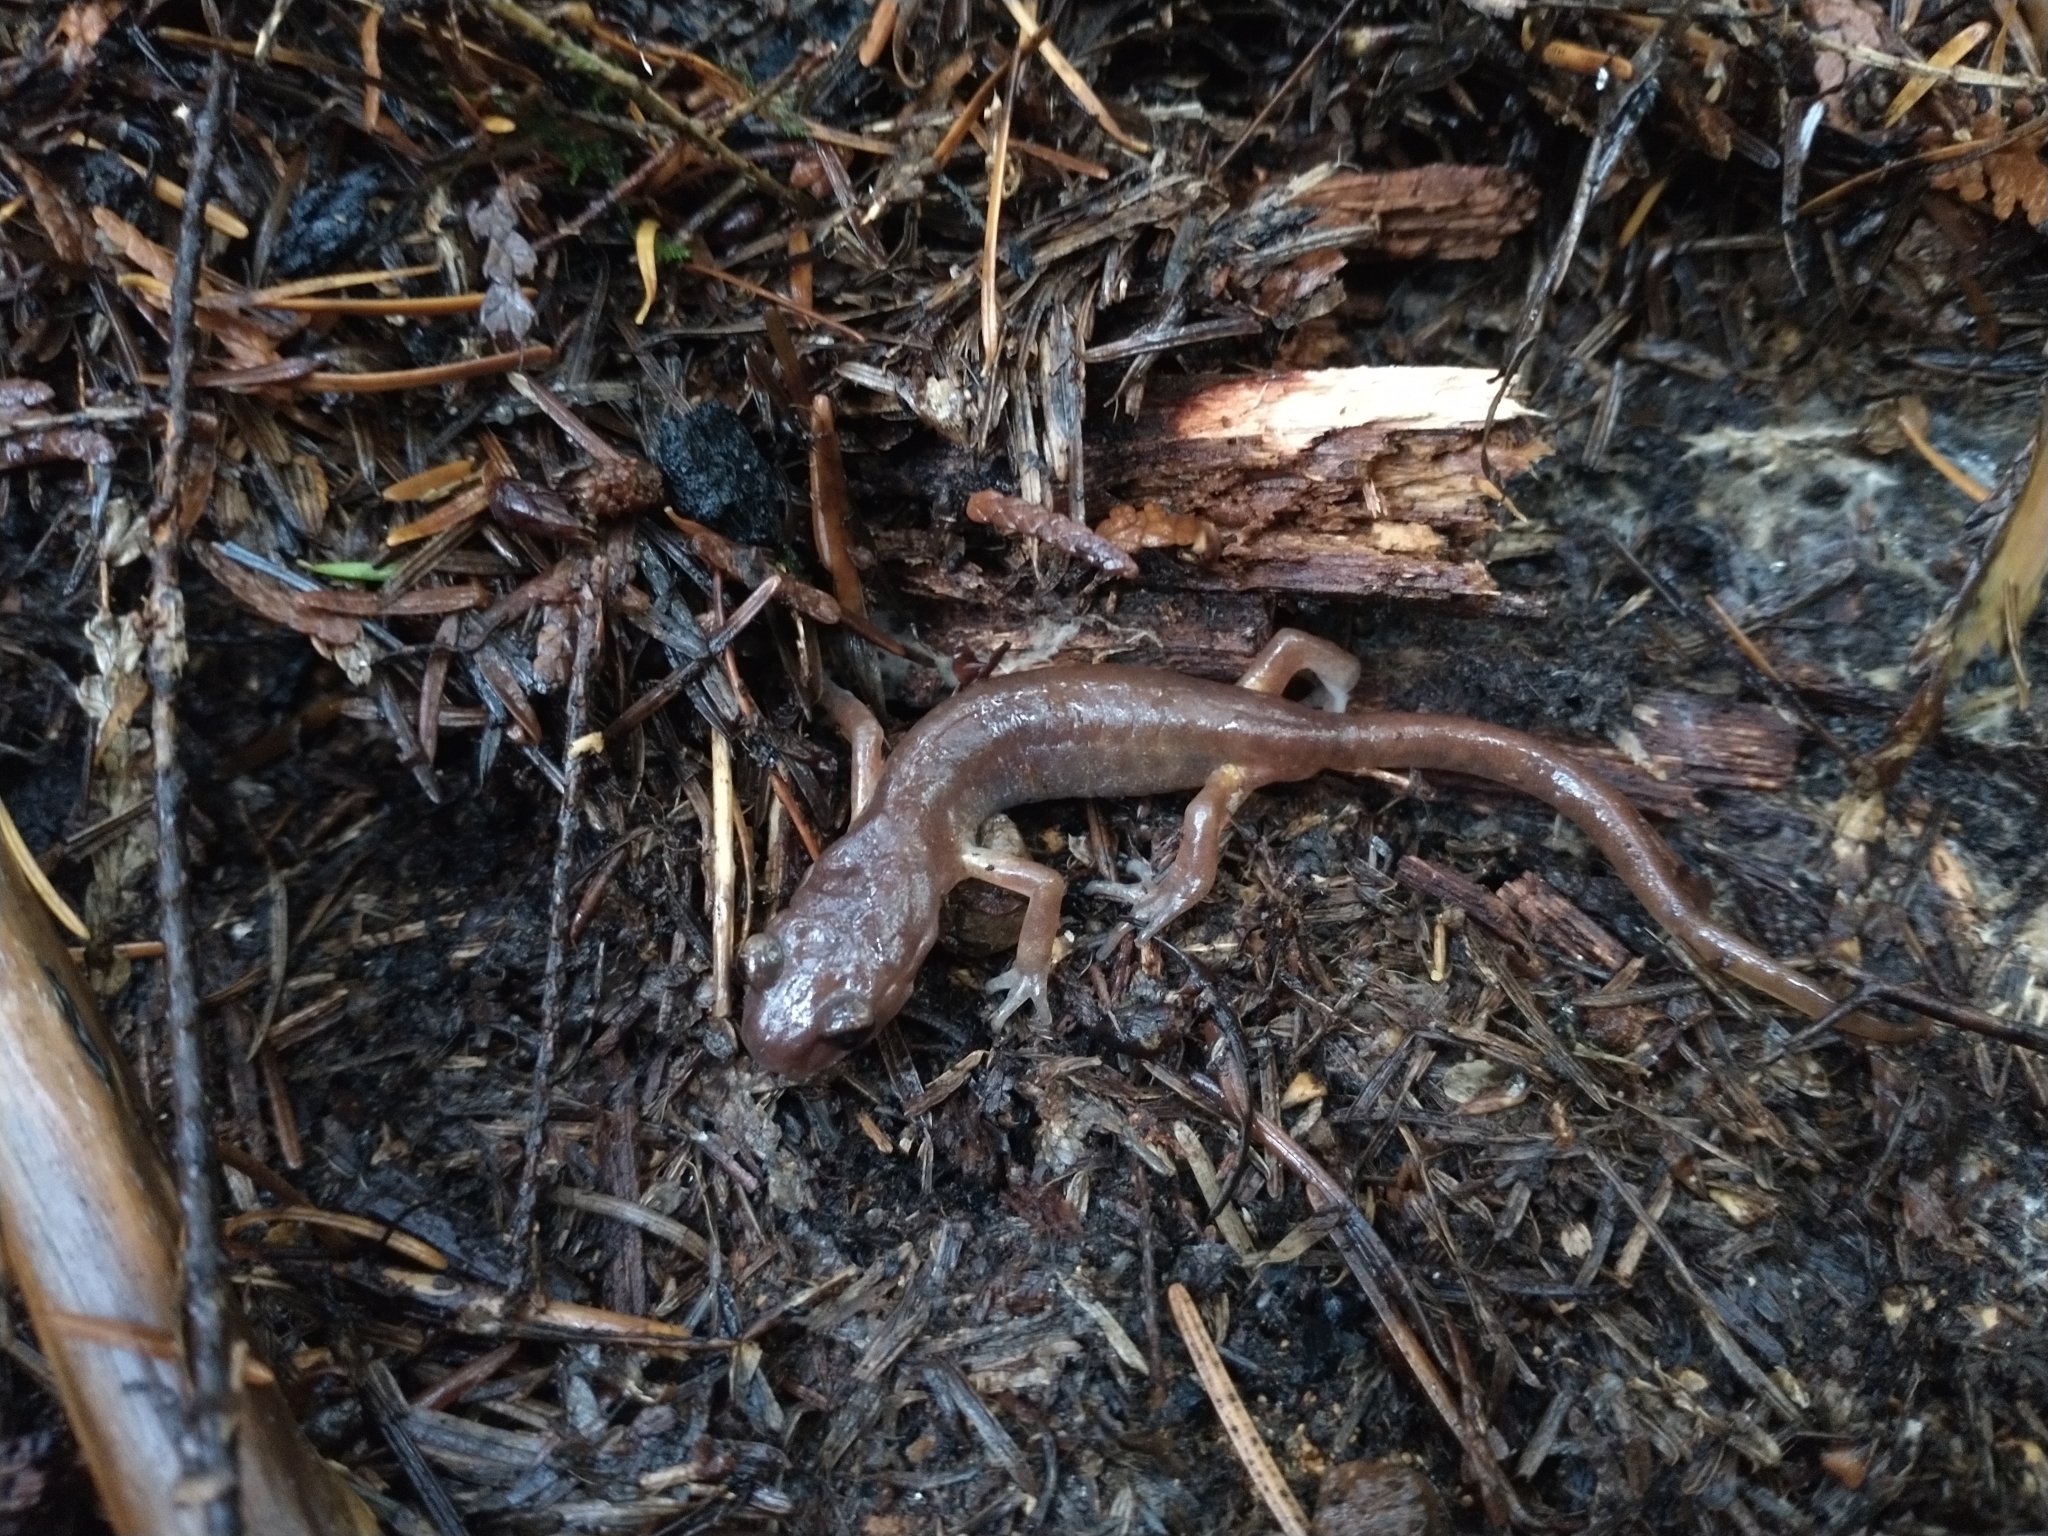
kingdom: Animalia
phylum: Chordata
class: Amphibia
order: Caudata
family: Plethodontidae
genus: Ensatina
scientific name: Ensatina eschscholtzii
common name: Ensatina
